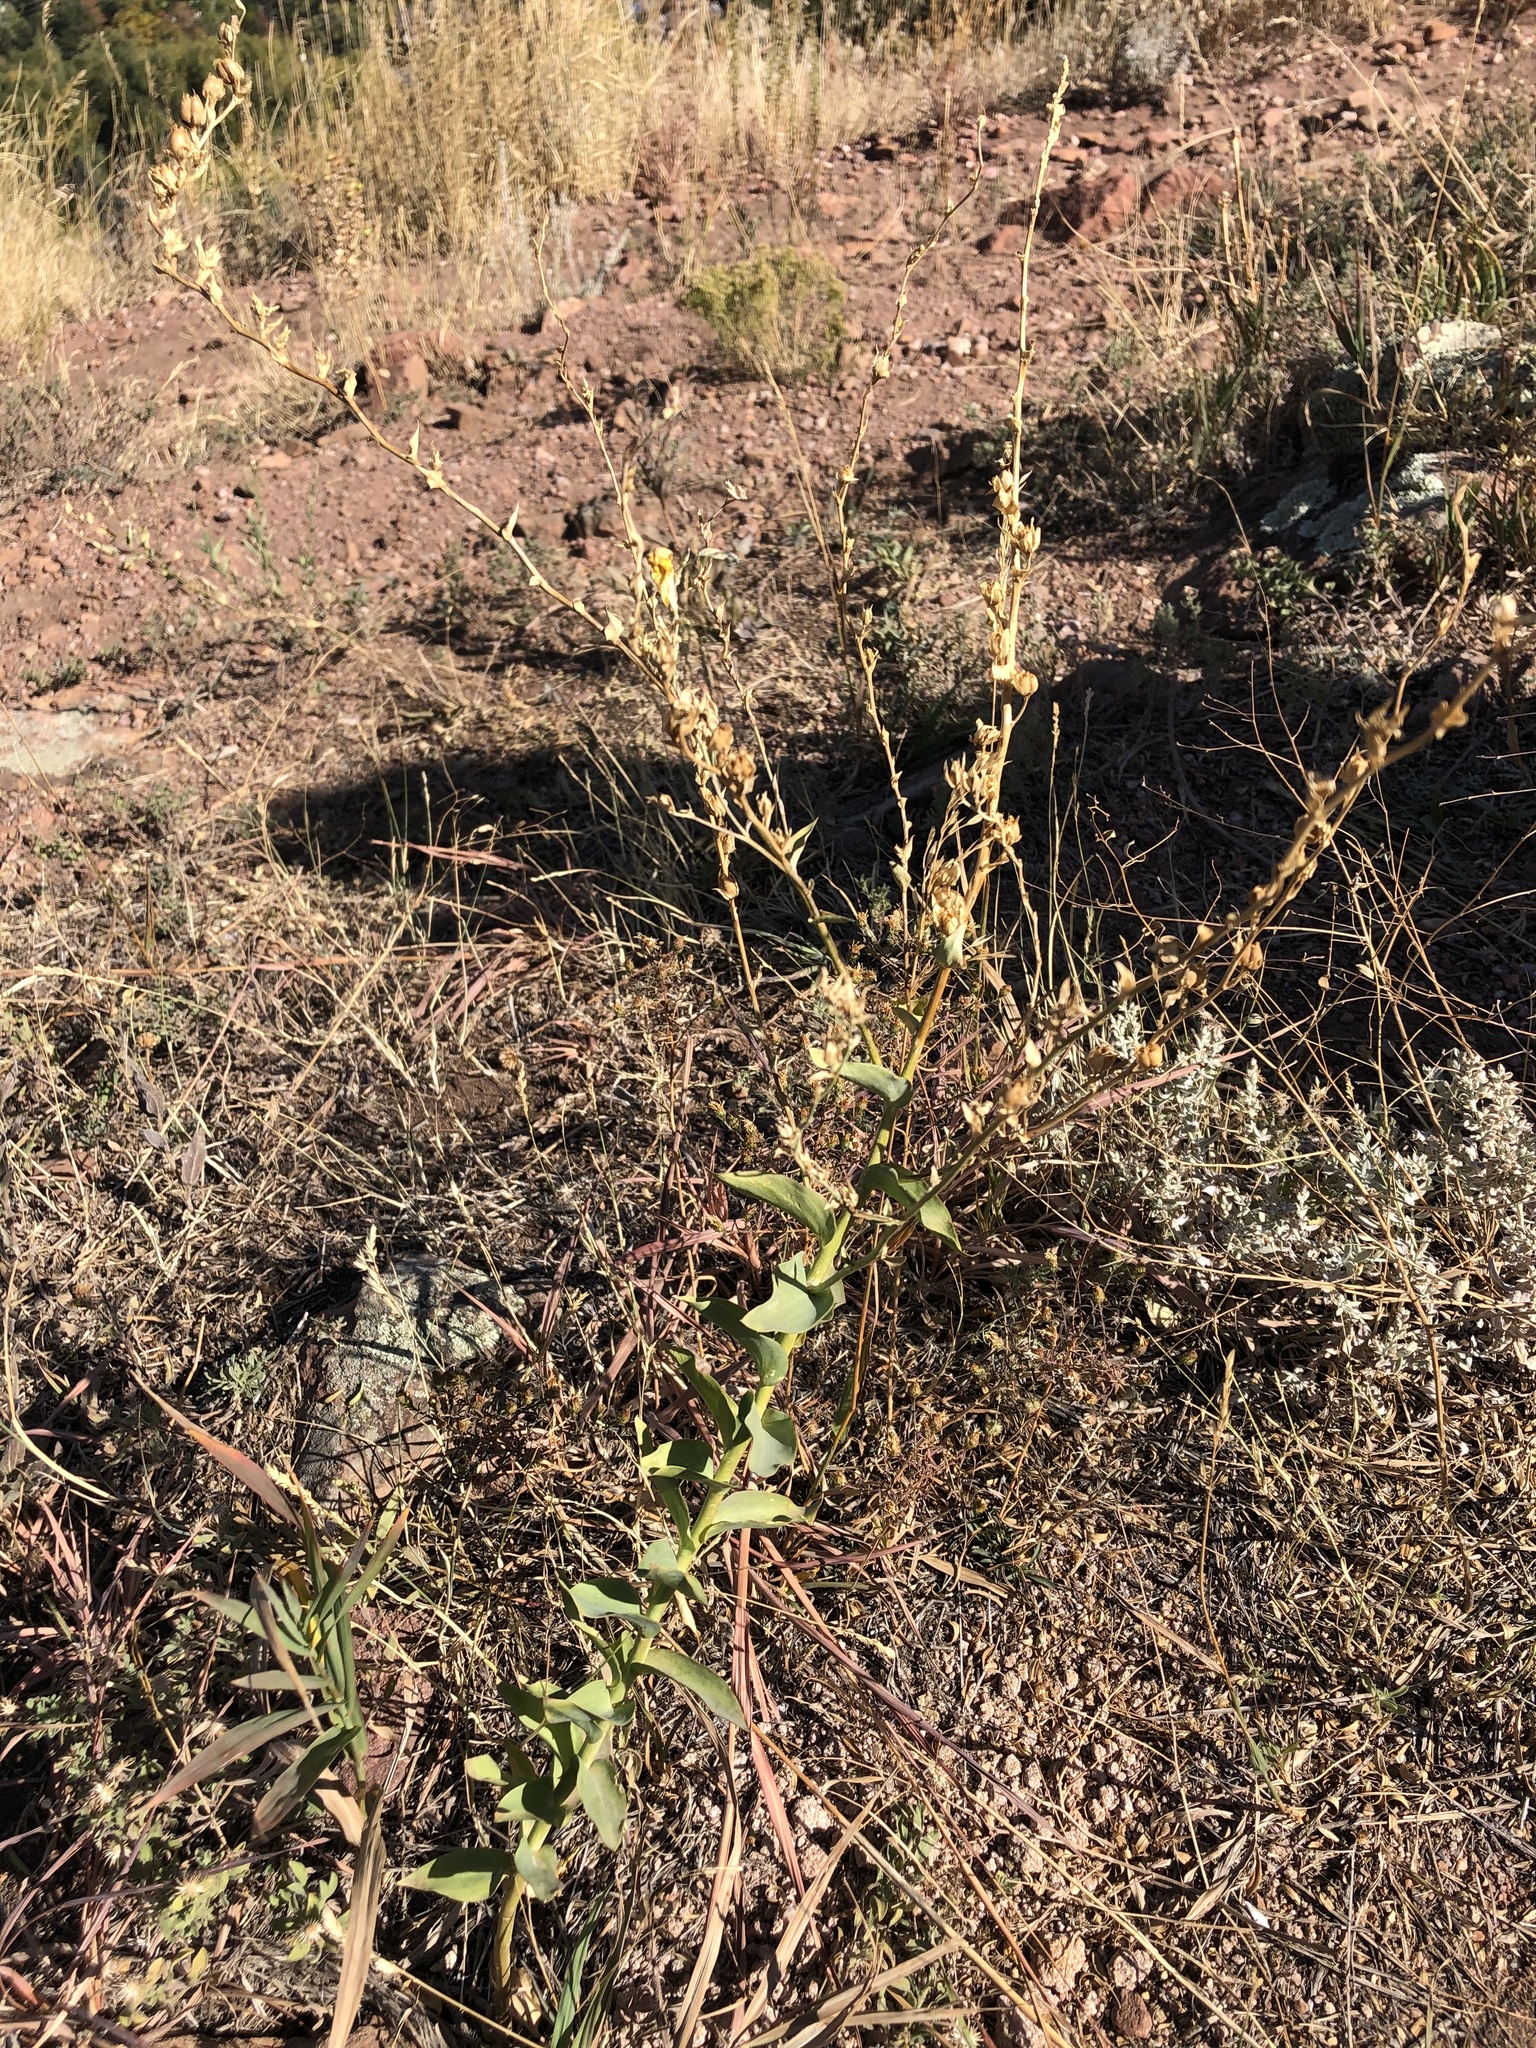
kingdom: Plantae
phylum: Tracheophyta
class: Magnoliopsida
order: Lamiales
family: Plantaginaceae
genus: Linaria
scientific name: Linaria dalmatica
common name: Dalmatian toadflax
